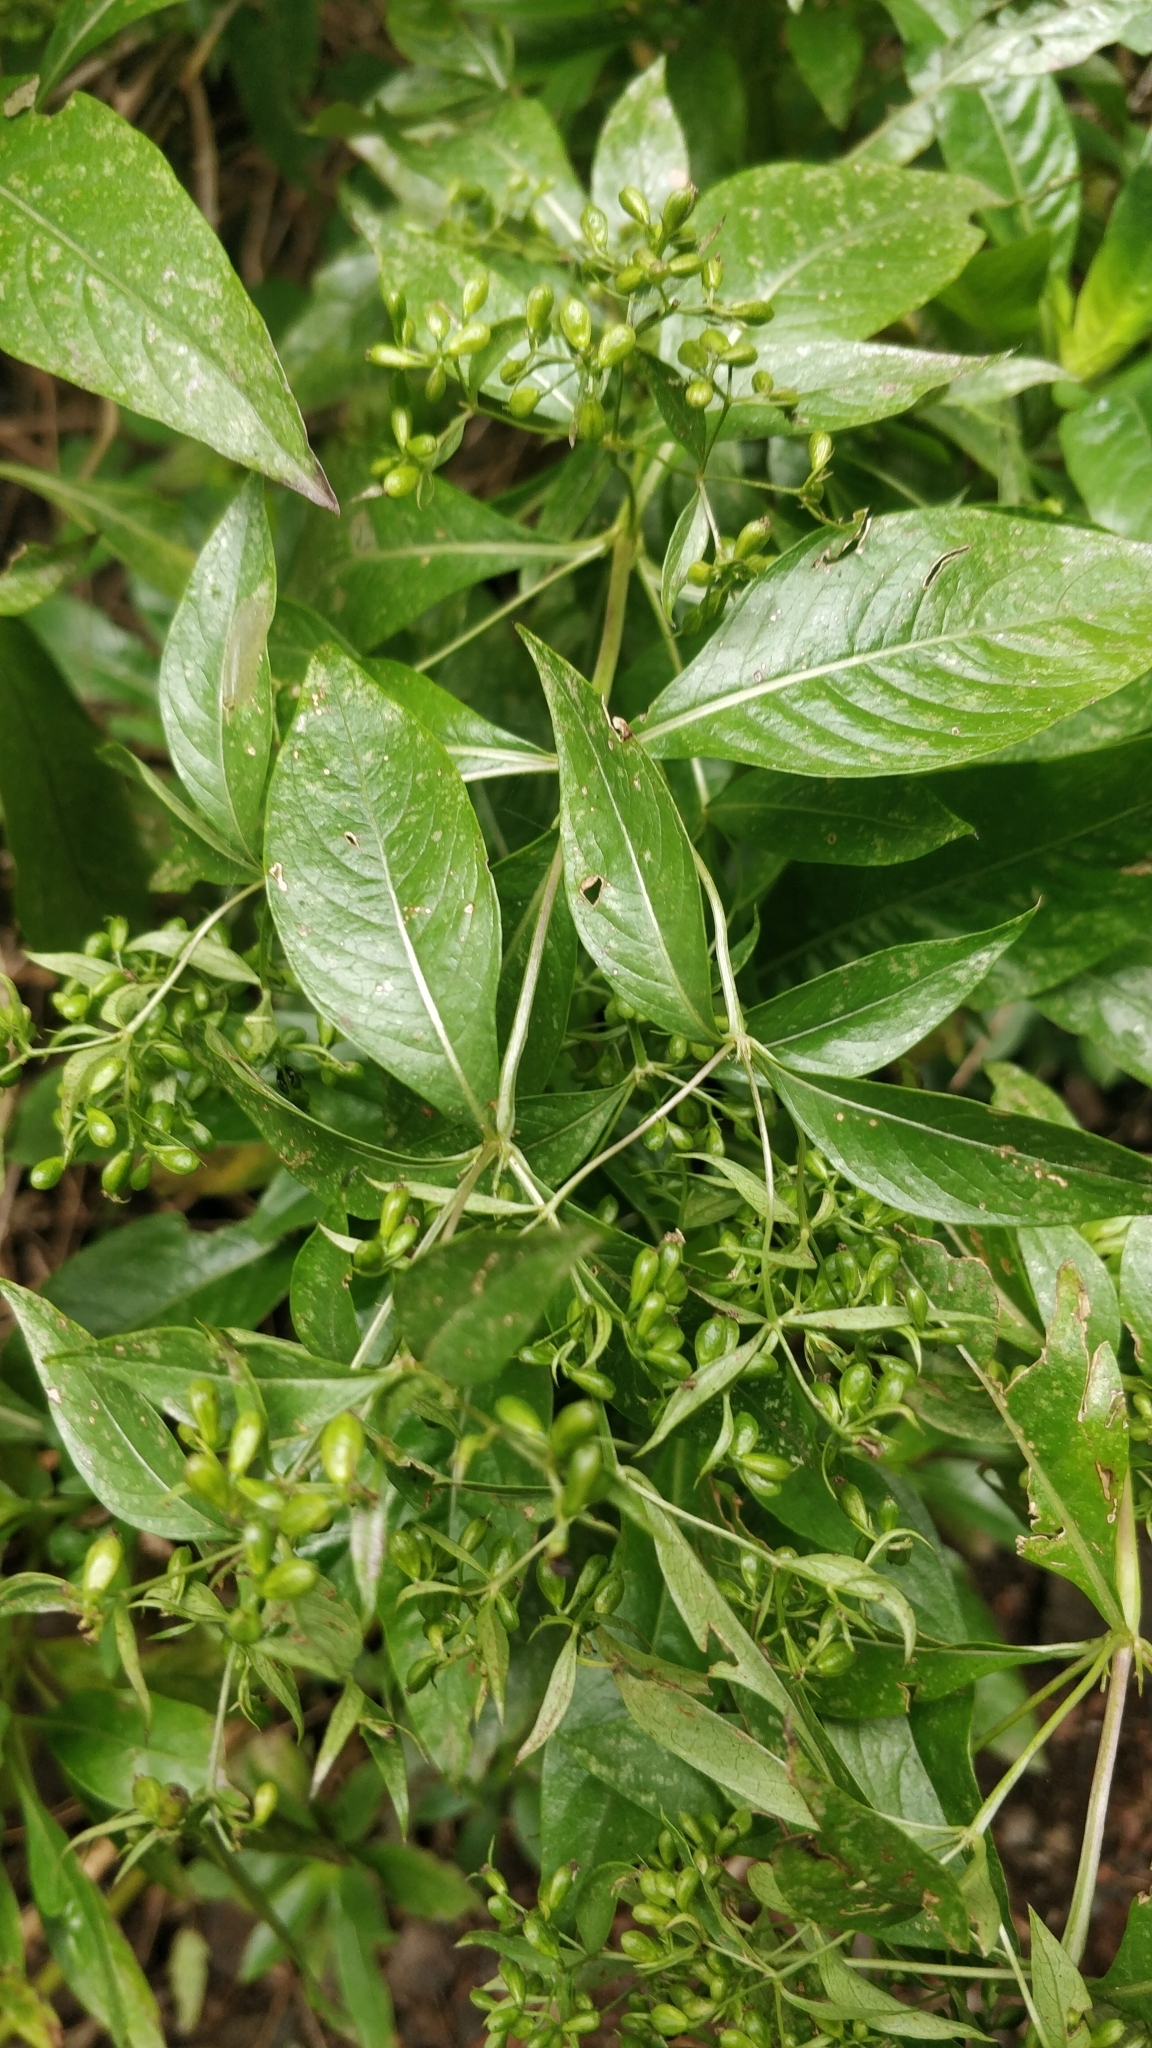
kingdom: Plantae
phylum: Tracheophyta
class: Magnoliopsida
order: Gentianales
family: Rubiaceae
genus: Phyllis
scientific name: Phyllis nobla
